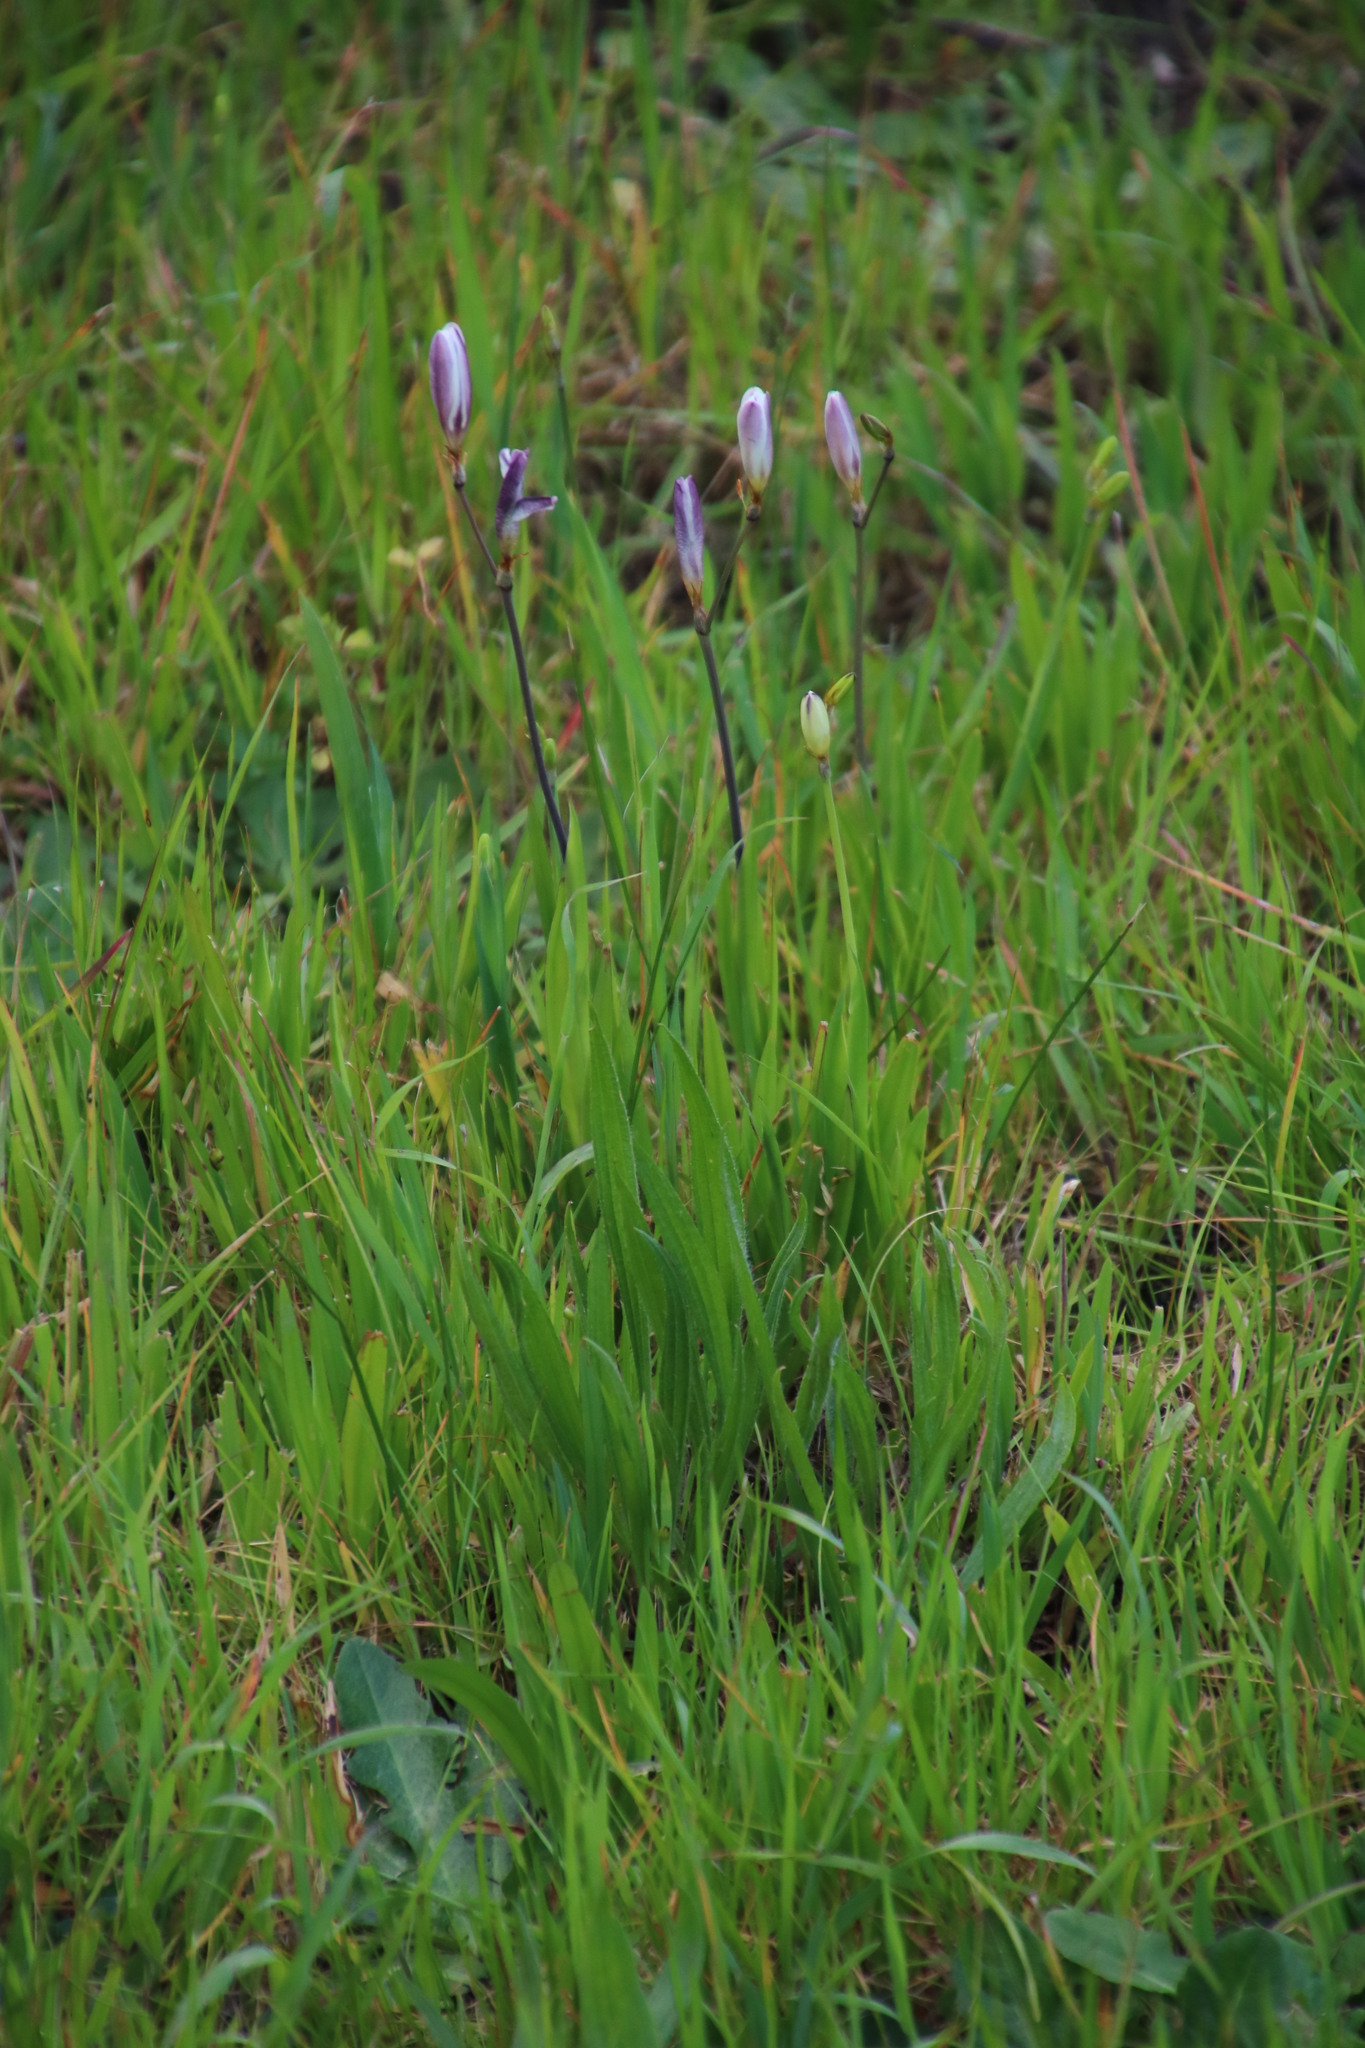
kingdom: Plantae
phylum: Tracheophyta
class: Liliopsida
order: Asparagales
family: Iridaceae
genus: Sparaxis
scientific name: Sparaxis bulbifera
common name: Harlequin-flower
